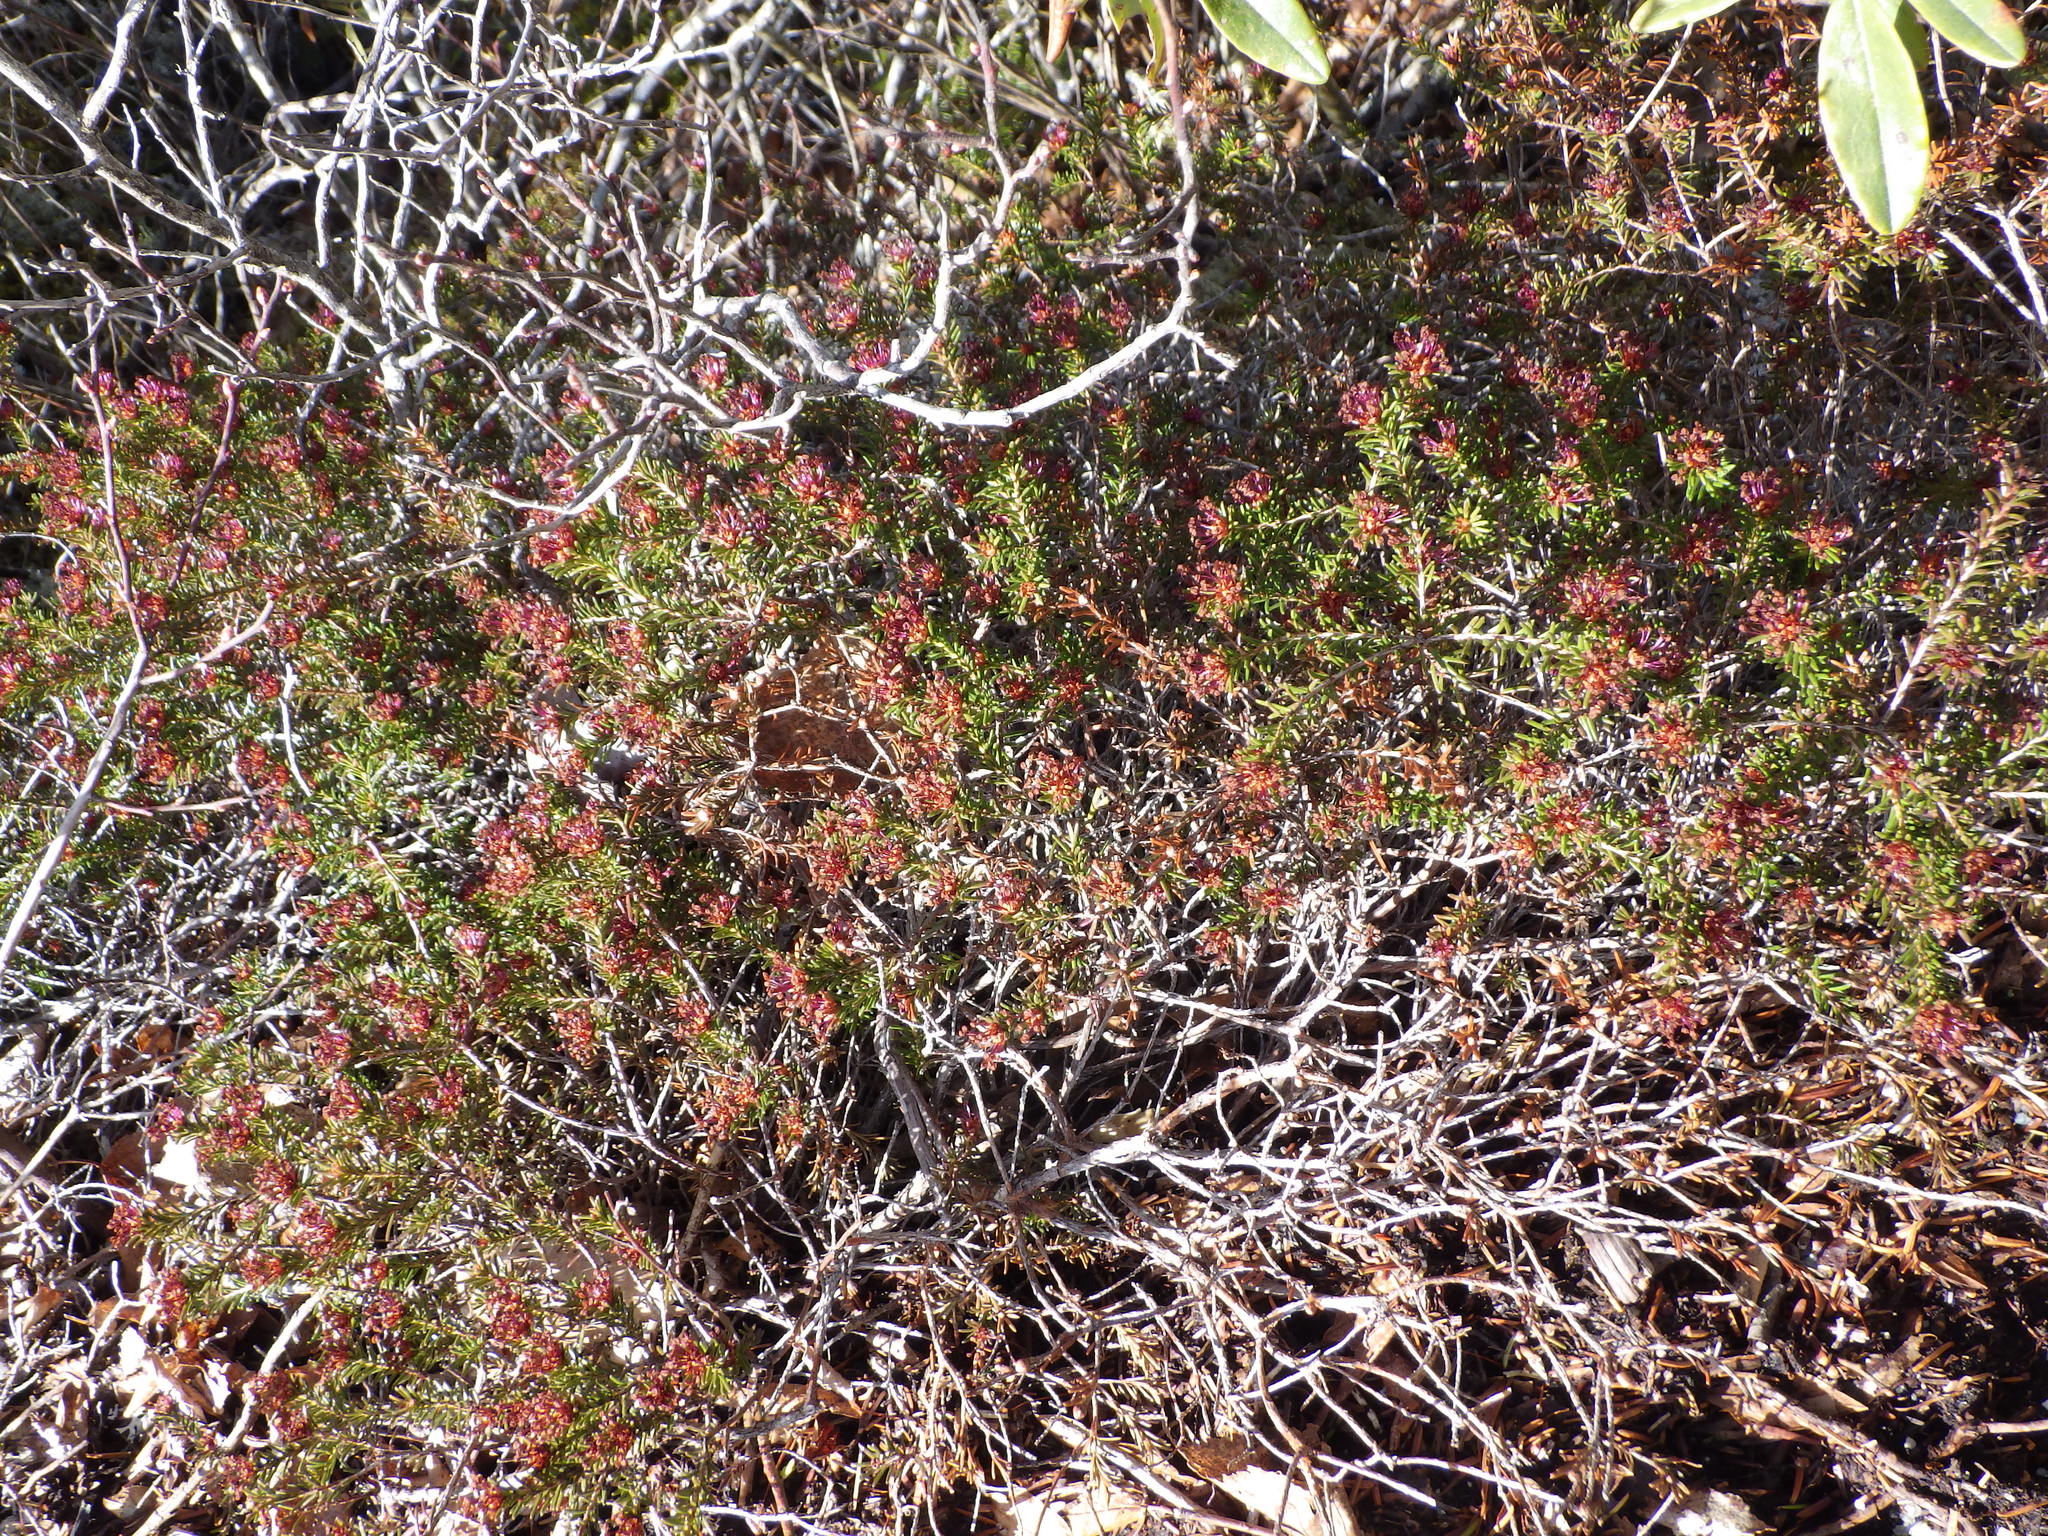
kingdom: Plantae
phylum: Tracheophyta
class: Magnoliopsida
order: Ericales
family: Ericaceae
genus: Corema
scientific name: Corema conradii
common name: Broom-crowberry
